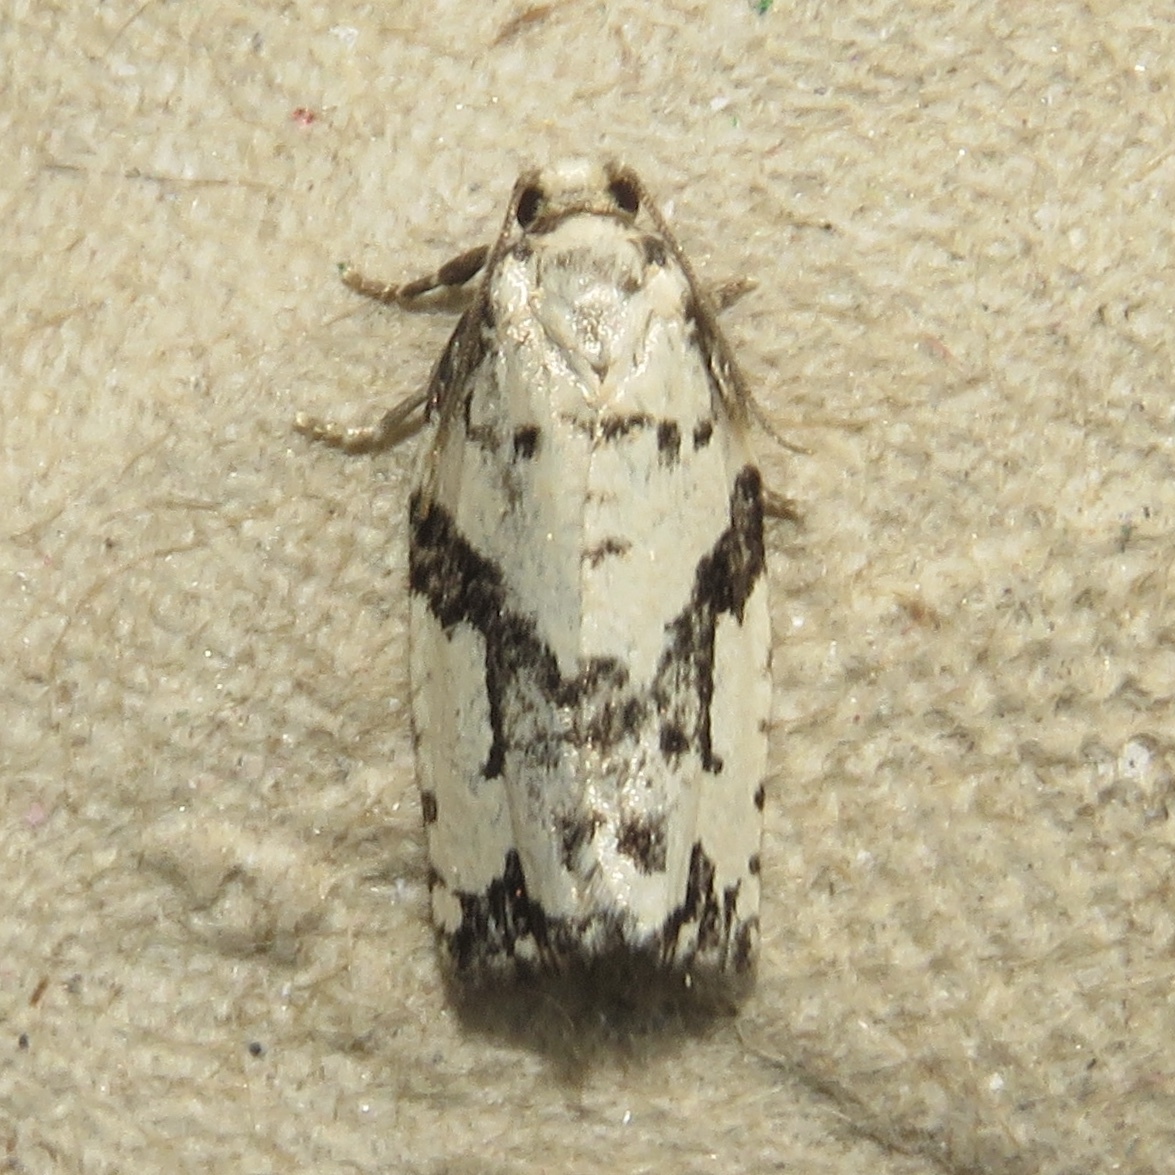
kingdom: Animalia
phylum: Arthropoda
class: Insecta
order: Lepidoptera
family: Tortricidae
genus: Archips
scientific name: Archips dissitana
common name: Boldly-marked archips moth
